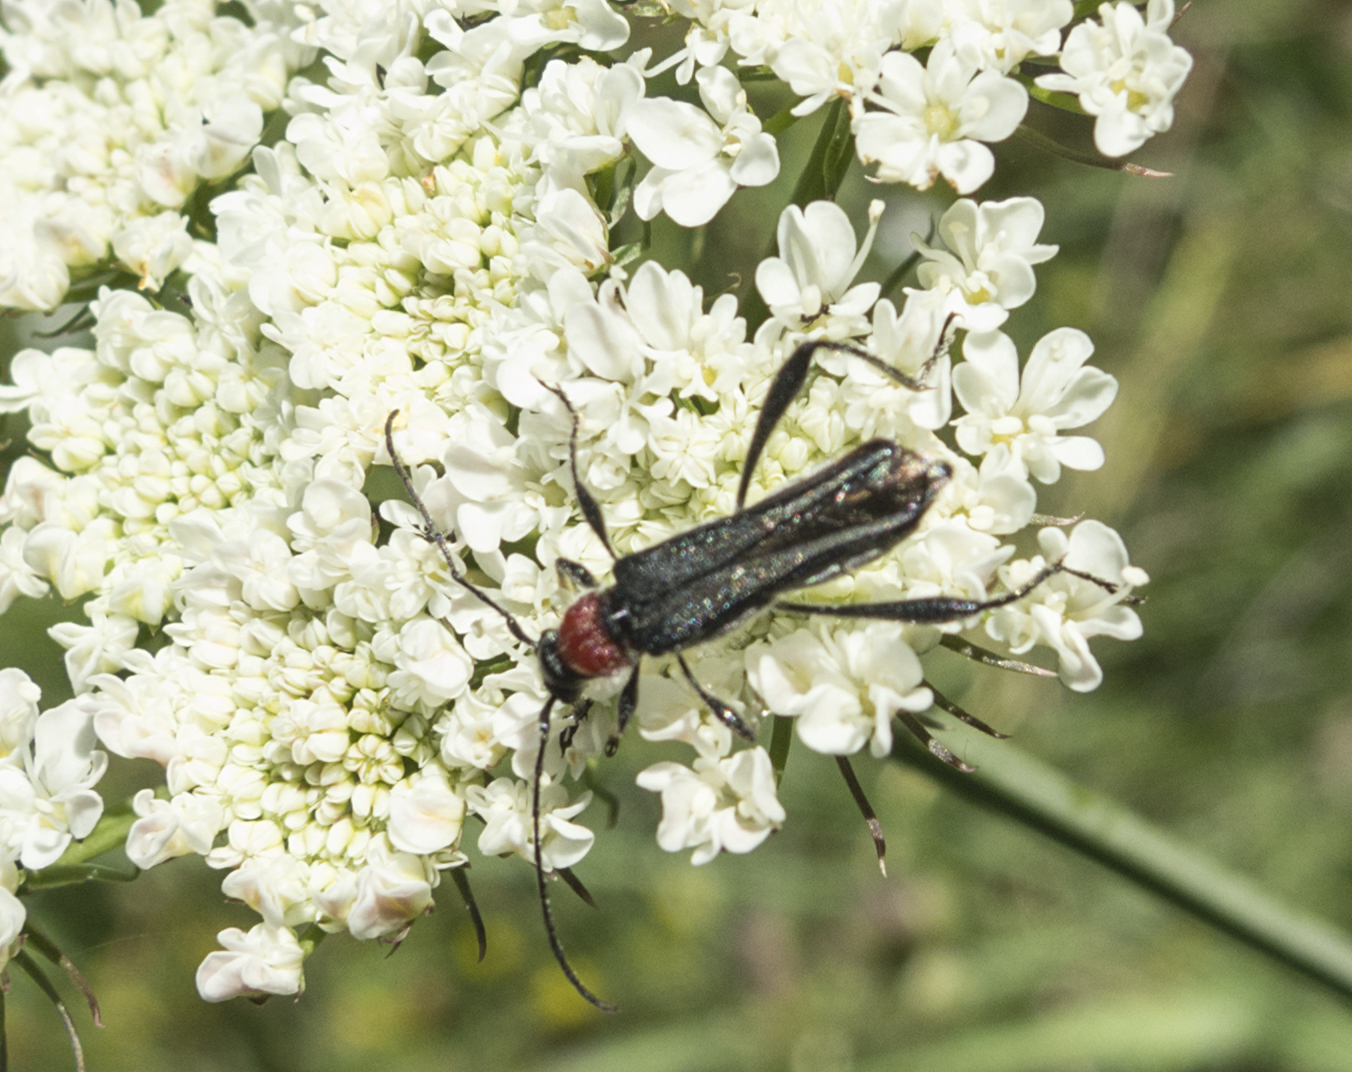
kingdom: Animalia
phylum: Arthropoda
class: Insecta
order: Coleoptera
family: Cerambycidae
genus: Callimoxys
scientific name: Callimoxys gracilis
